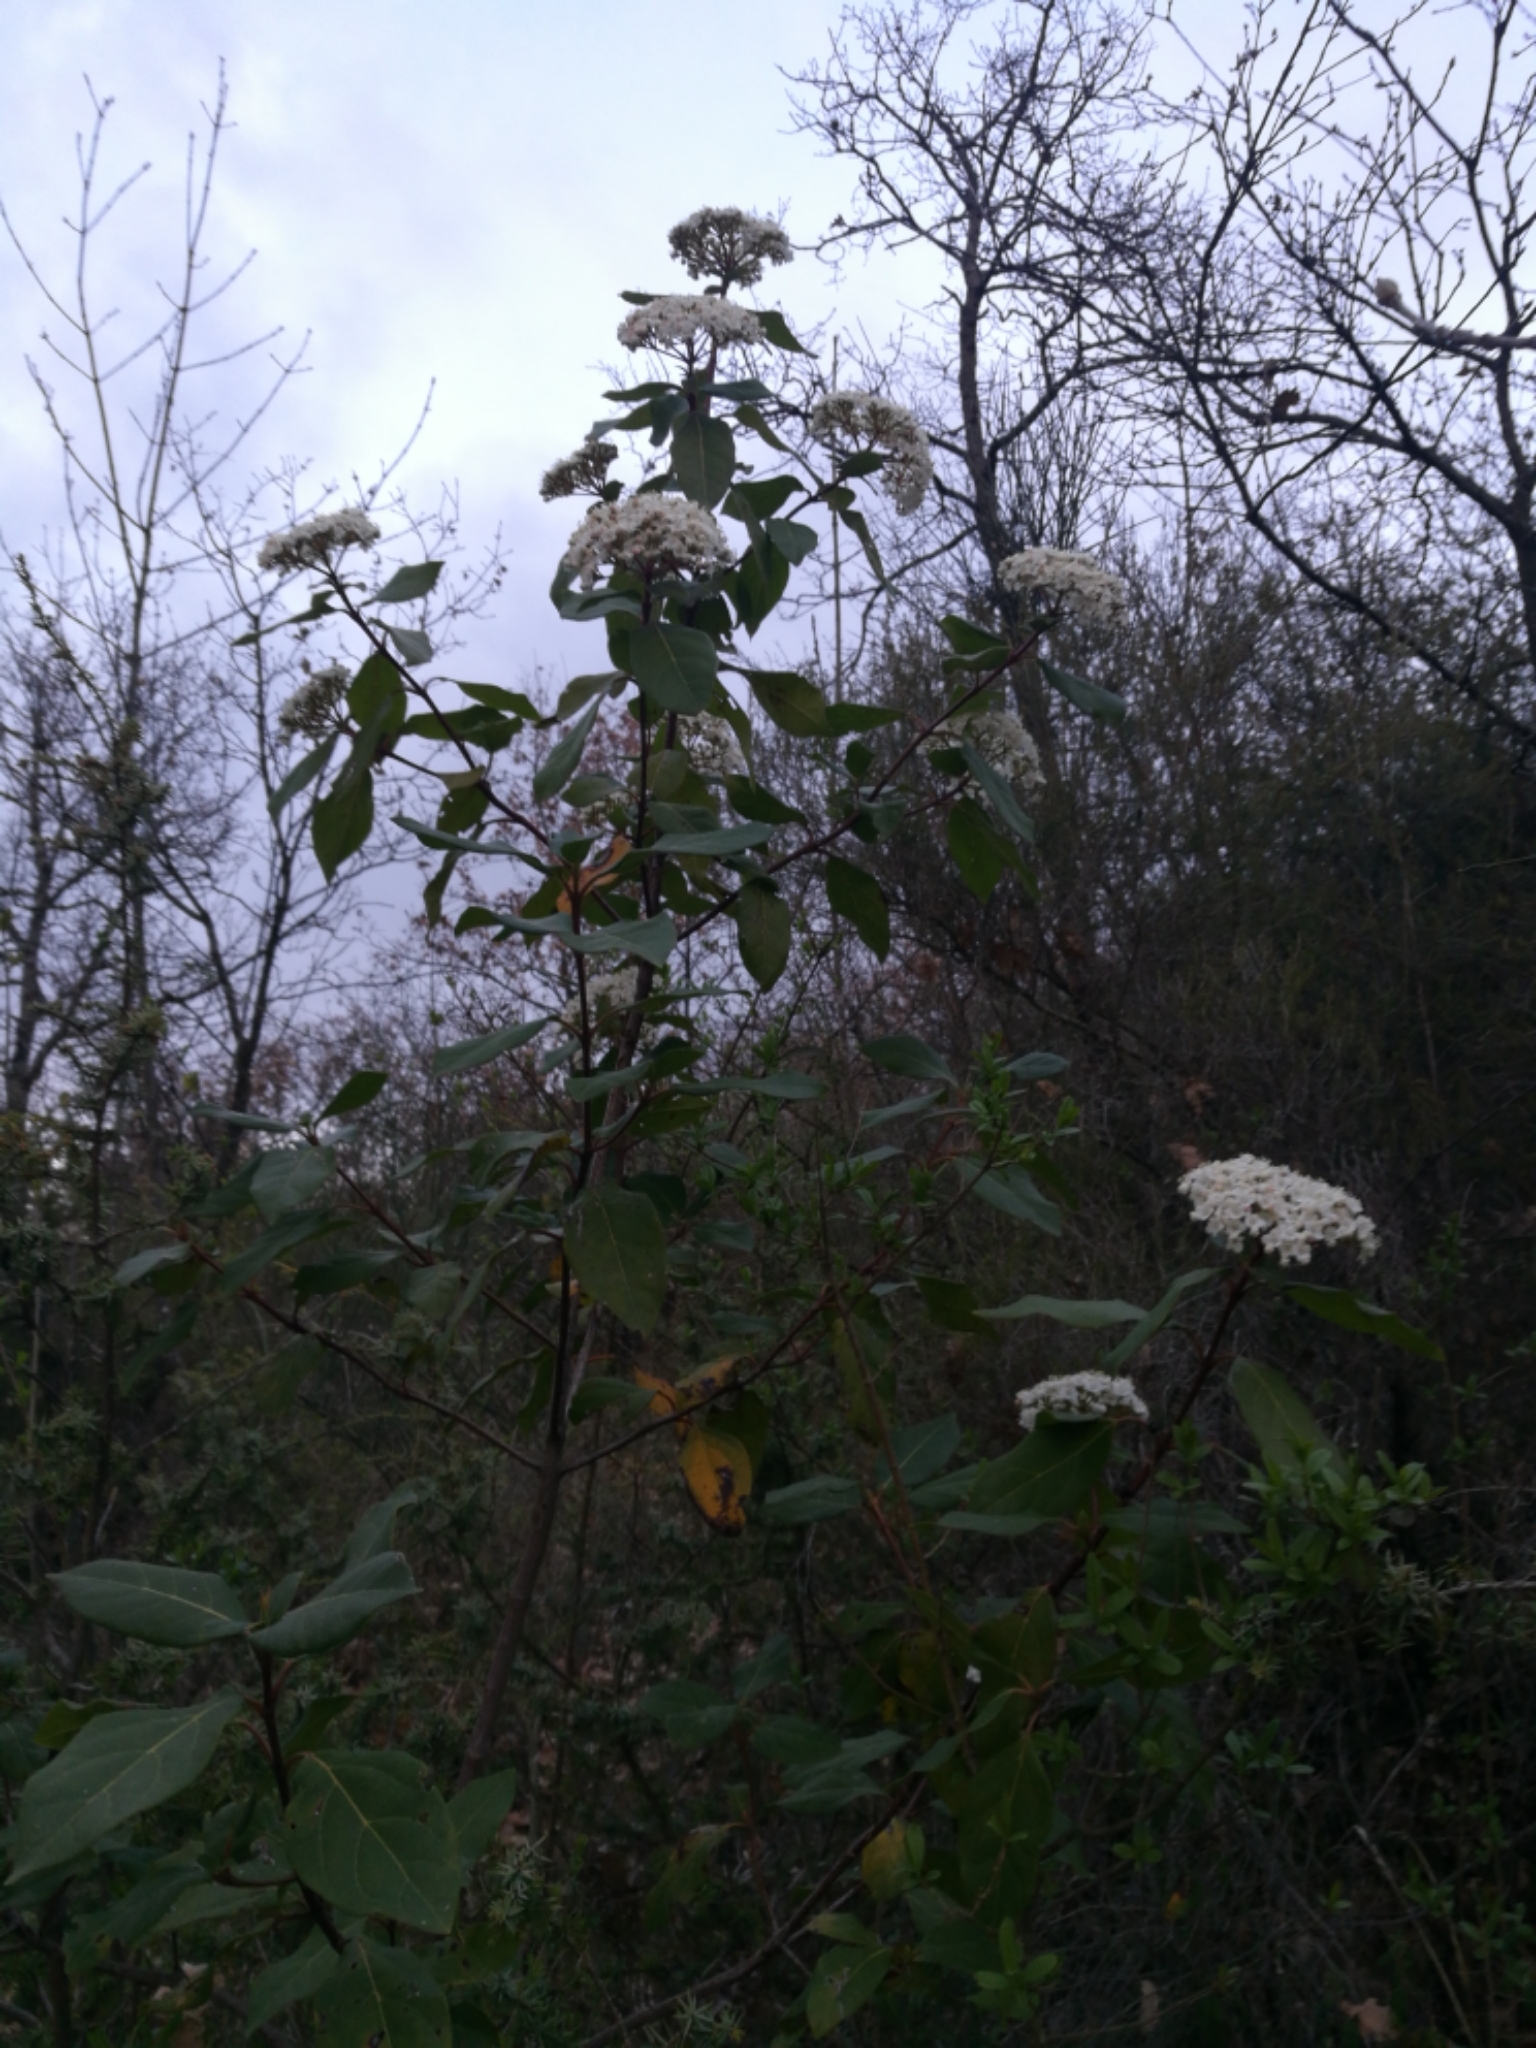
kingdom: Plantae
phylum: Tracheophyta
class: Magnoliopsida
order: Dipsacales
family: Viburnaceae
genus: Viburnum
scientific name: Viburnum tinus
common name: Laurustinus
